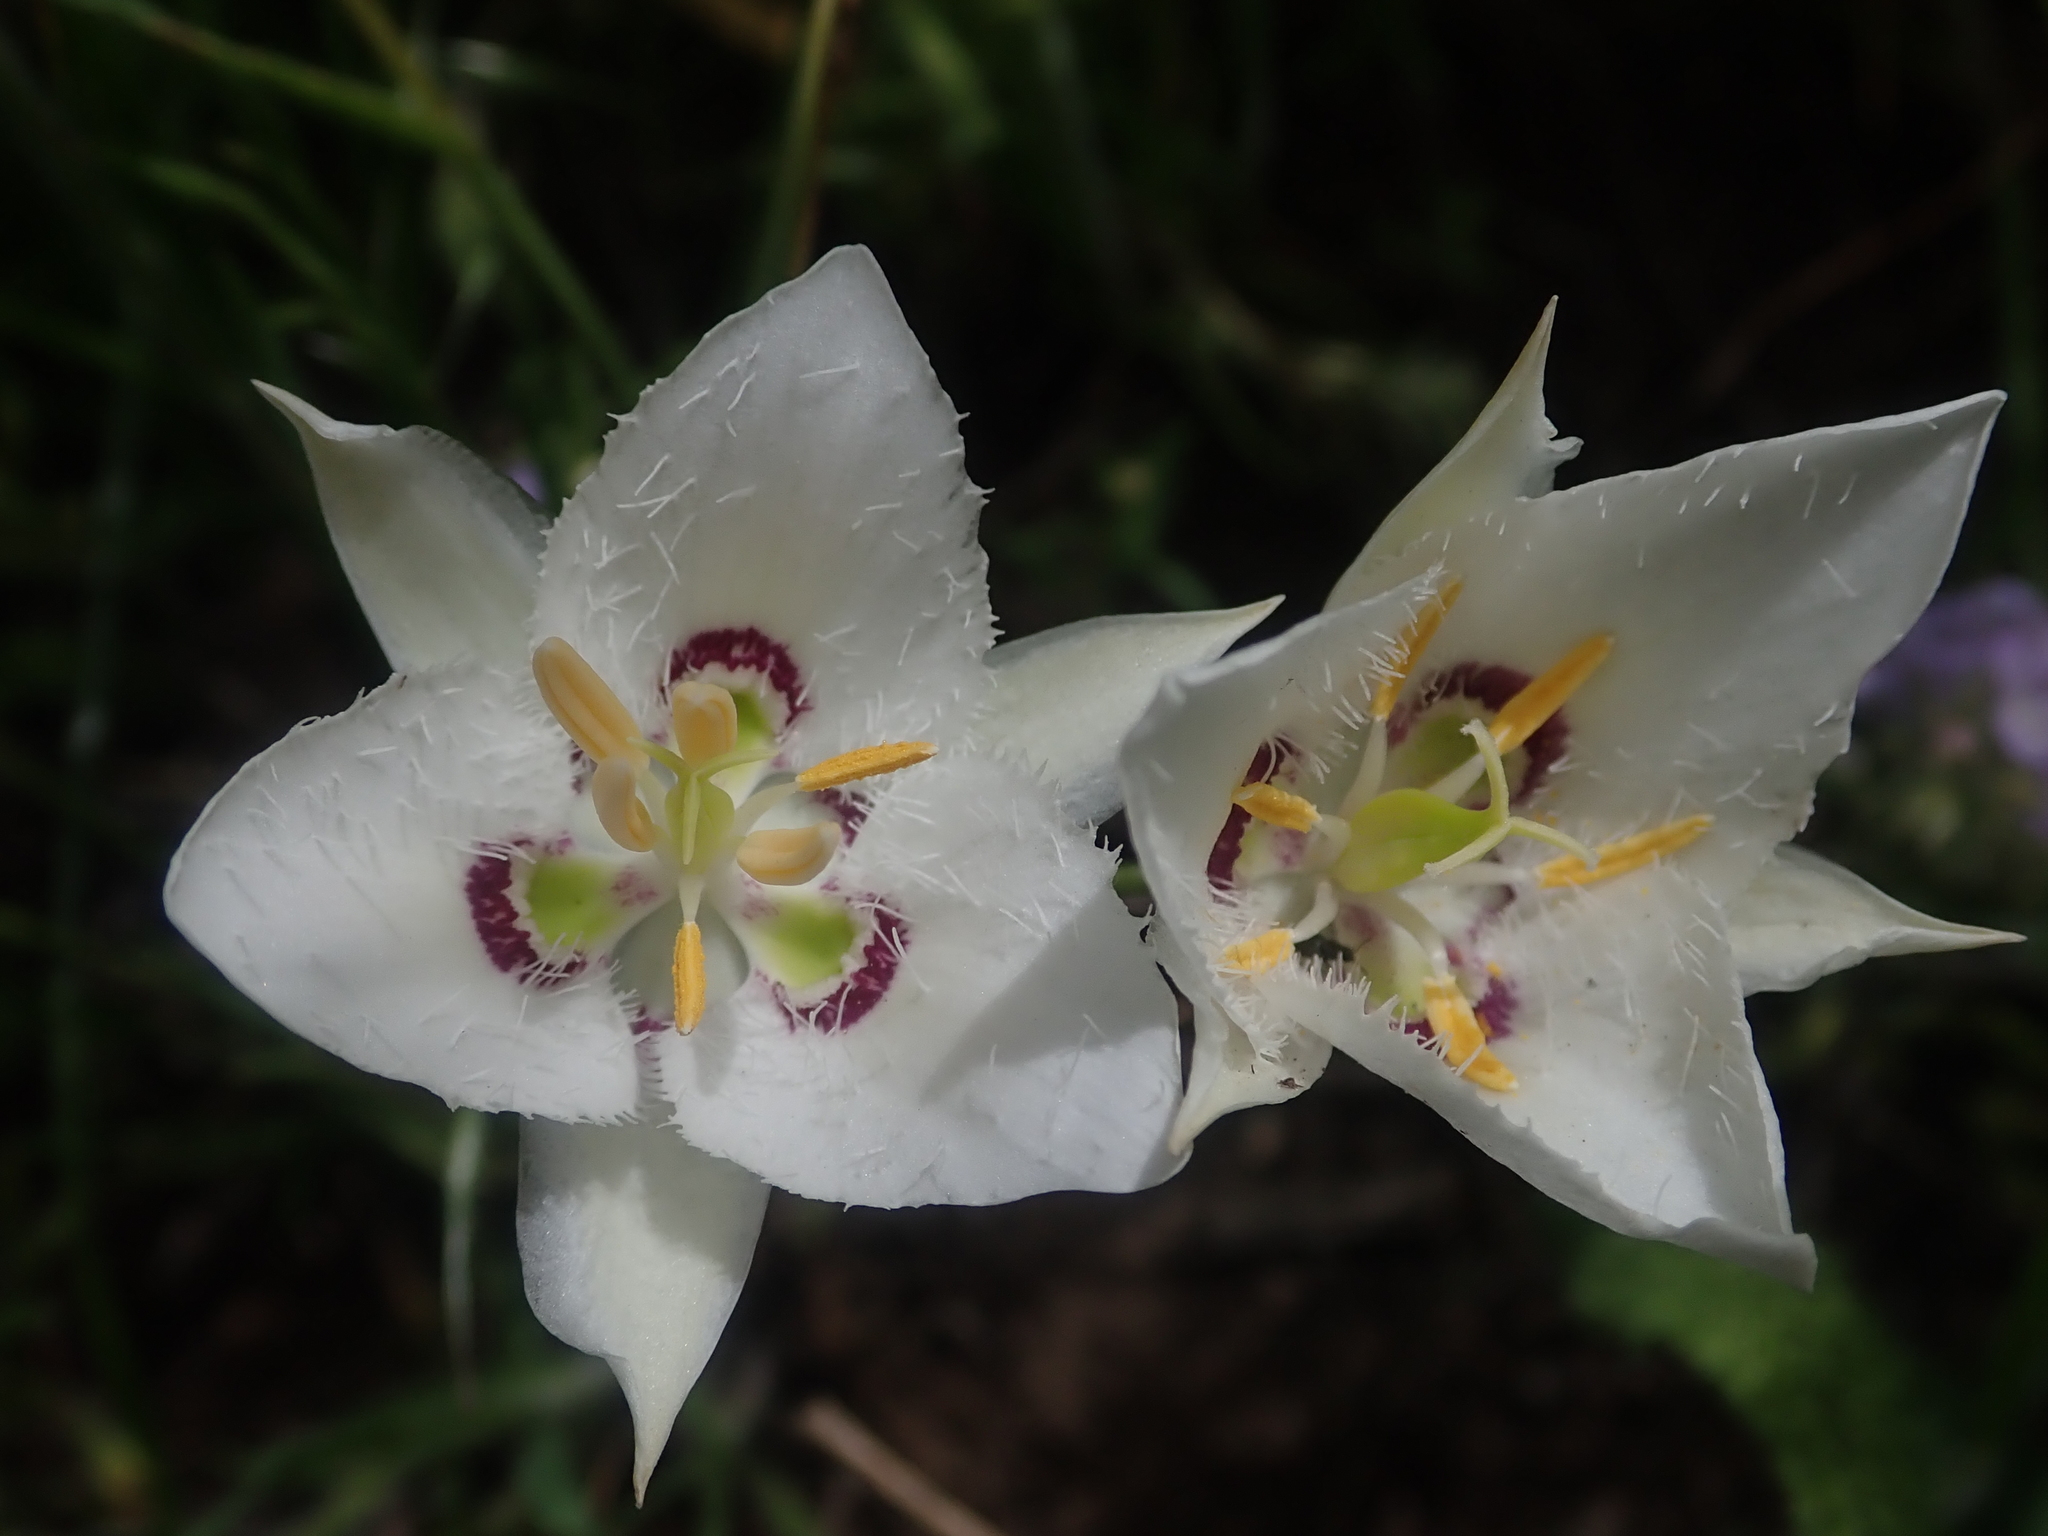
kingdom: Plantae
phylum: Tracheophyta
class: Liliopsida
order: Liliales
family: Liliaceae
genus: Calochortus
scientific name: Calochortus lyallii
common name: Lyall's mariposa lily
